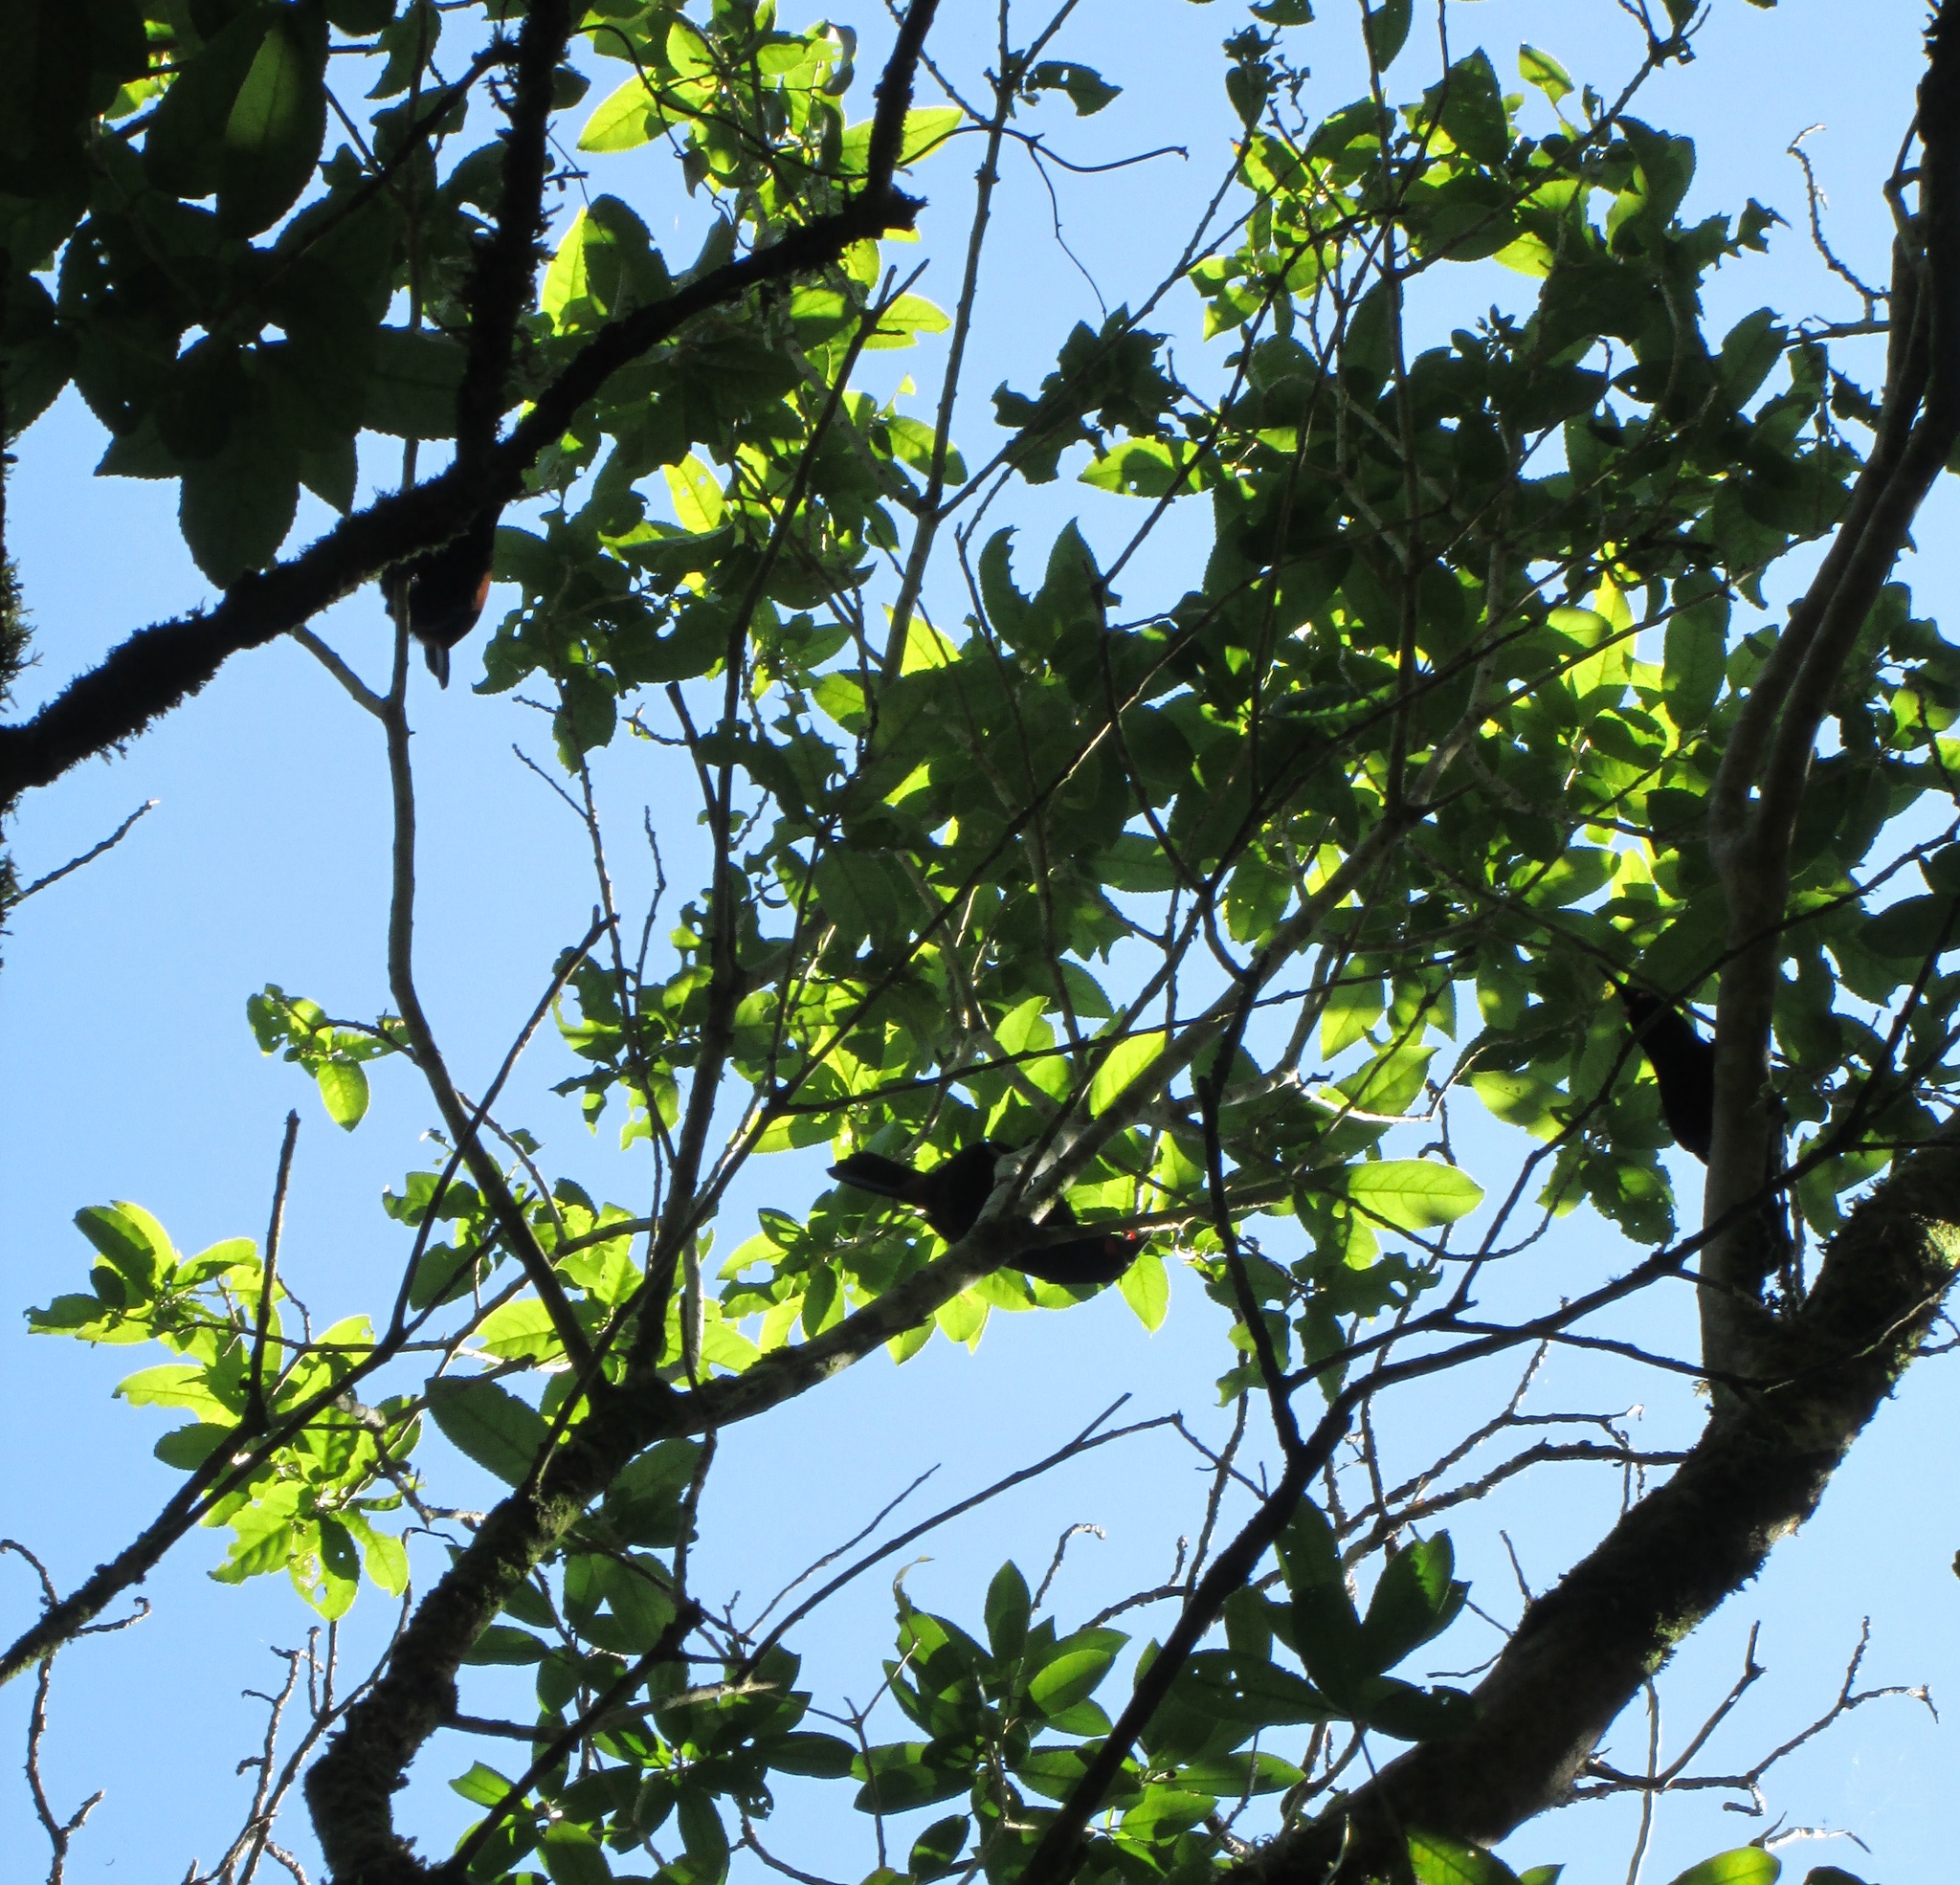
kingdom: Animalia
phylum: Chordata
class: Aves
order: Passeriformes
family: Callaeatidae
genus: Philesturnus
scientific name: Philesturnus carunculatus
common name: South island saddleback
